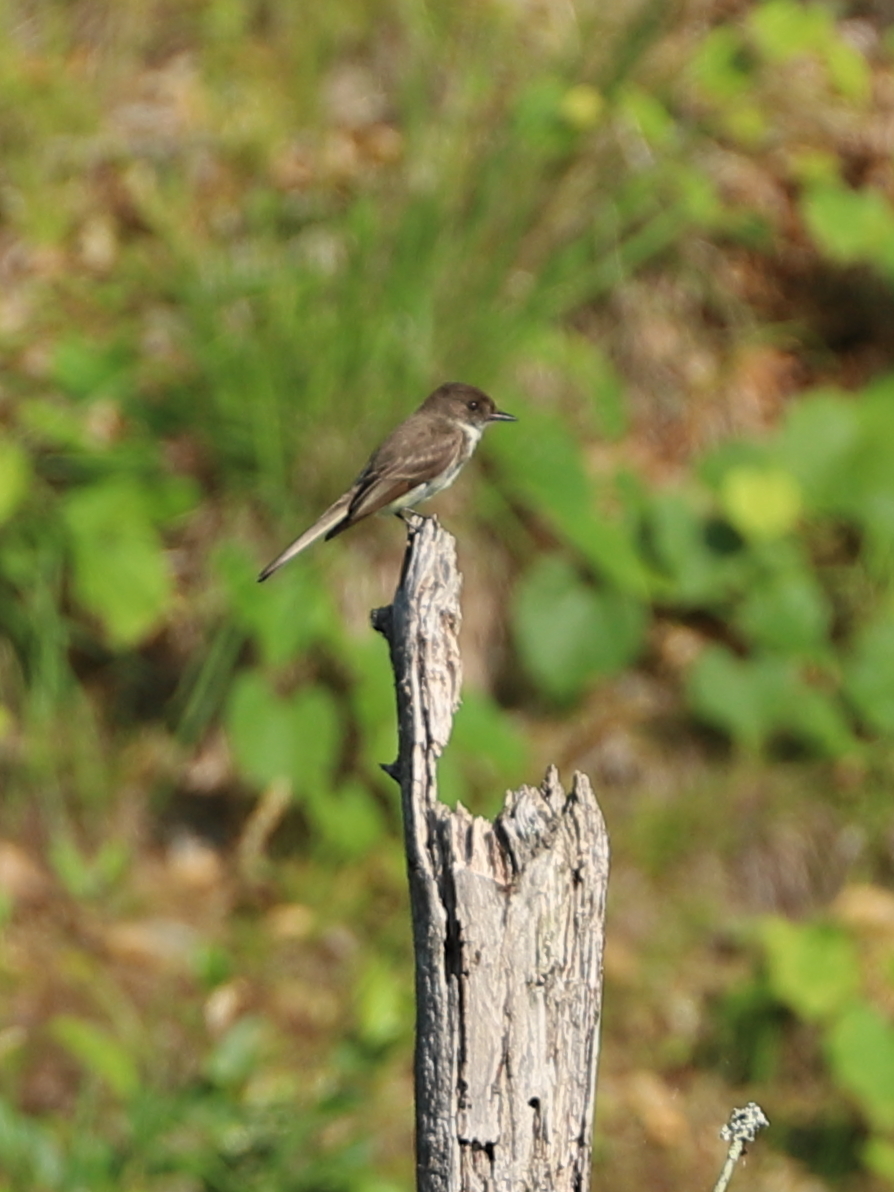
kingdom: Animalia
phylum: Chordata
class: Aves
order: Passeriformes
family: Tyrannidae
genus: Sayornis
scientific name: Sayornis phoebe
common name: Eastern phoebe
